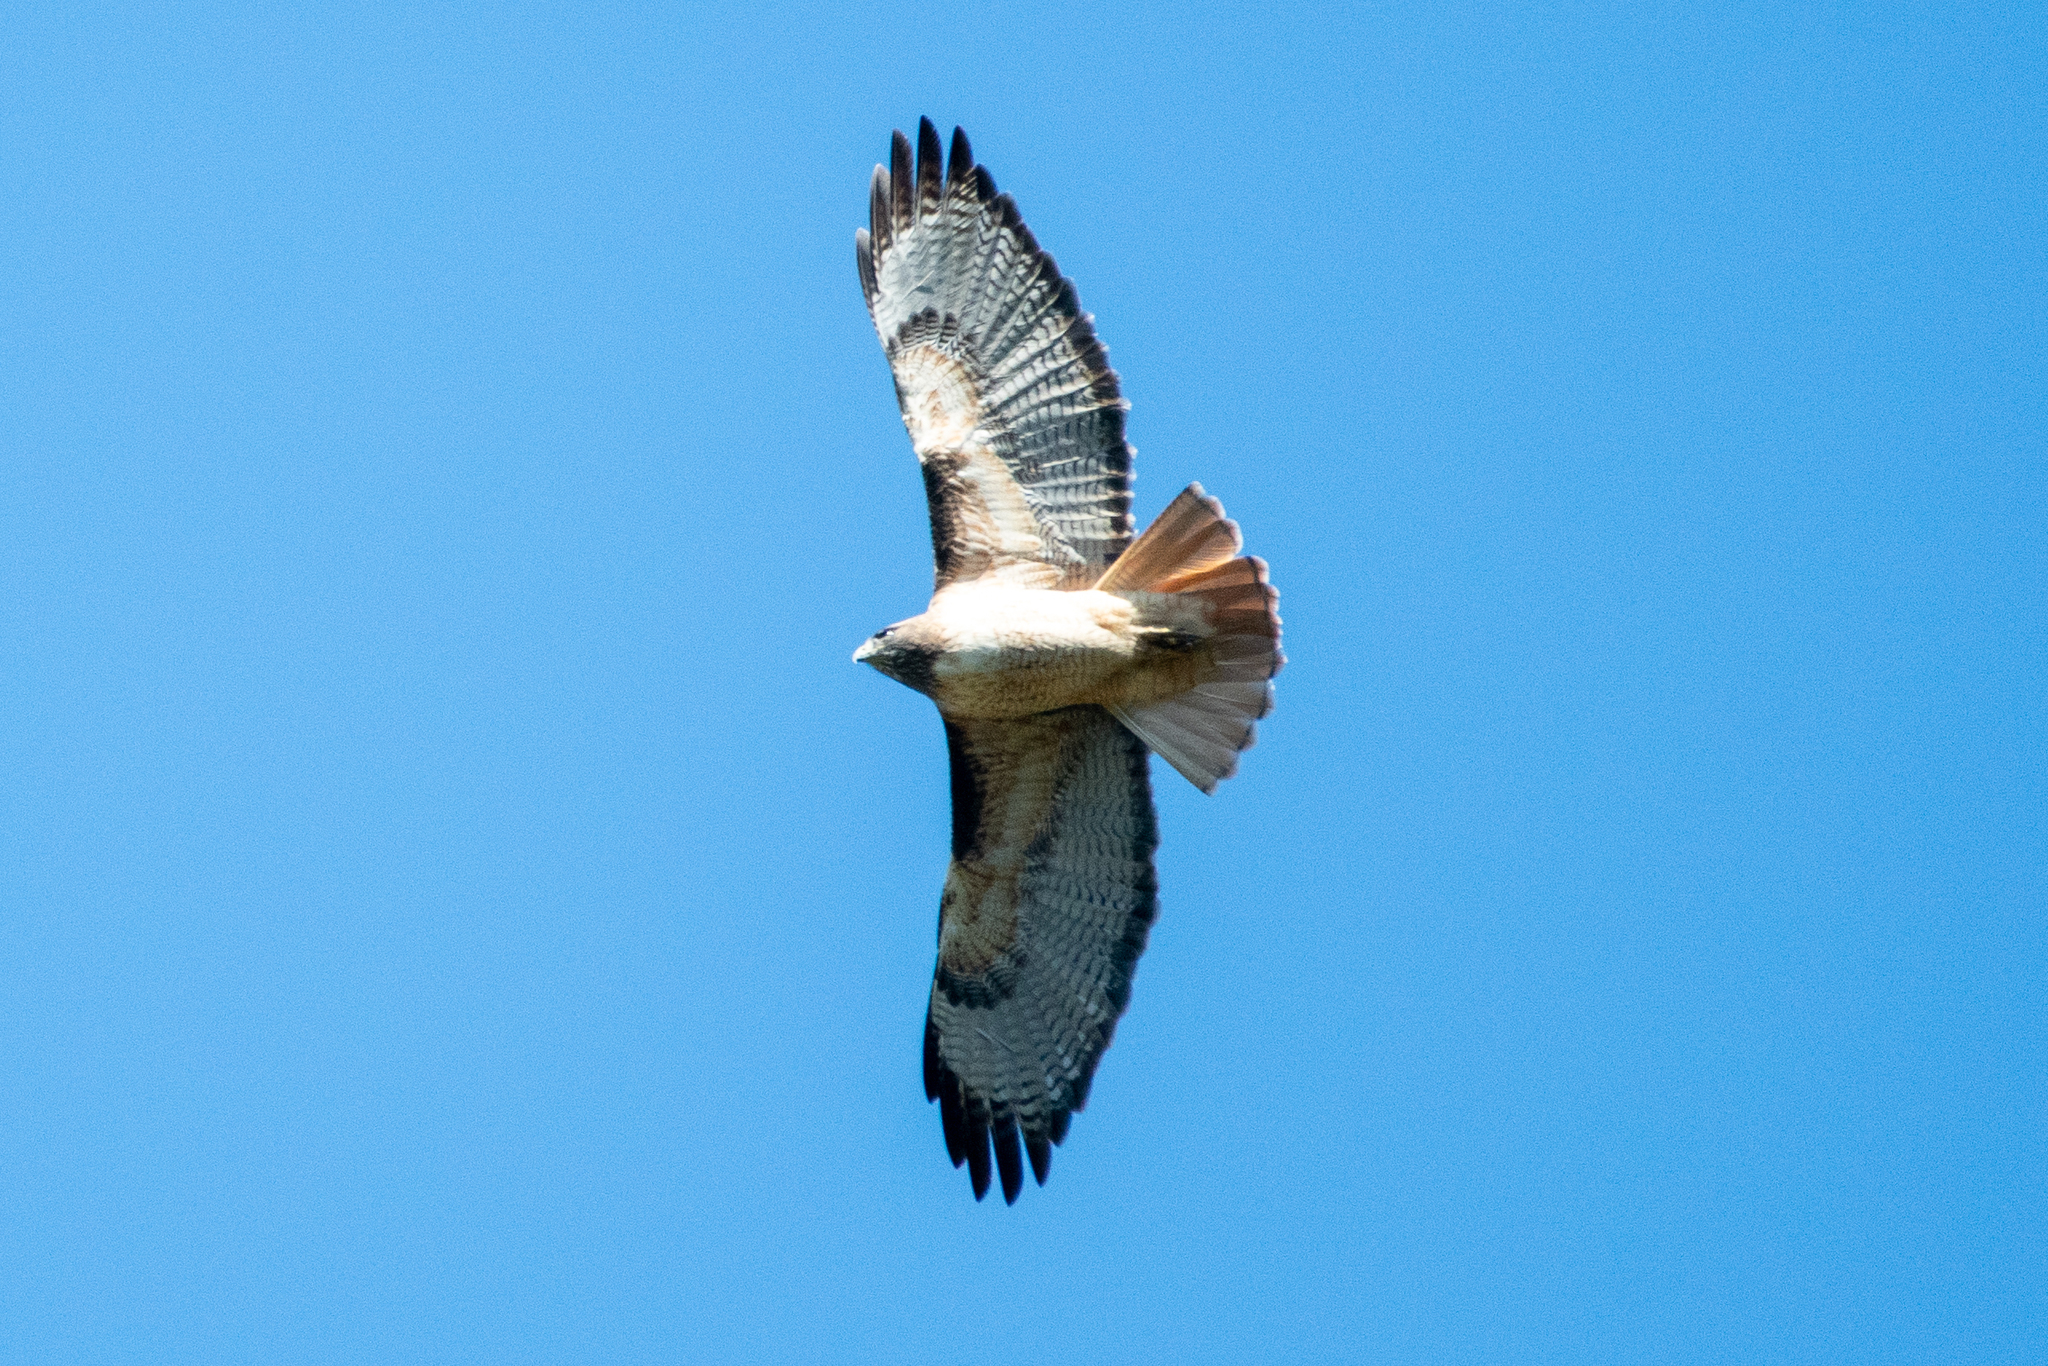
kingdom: Animalia
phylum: Chordata
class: Aves
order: Accipitriformes
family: Accipitridae
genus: Buteo
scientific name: Buteo jamaicensis
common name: Red-tailed hawk
